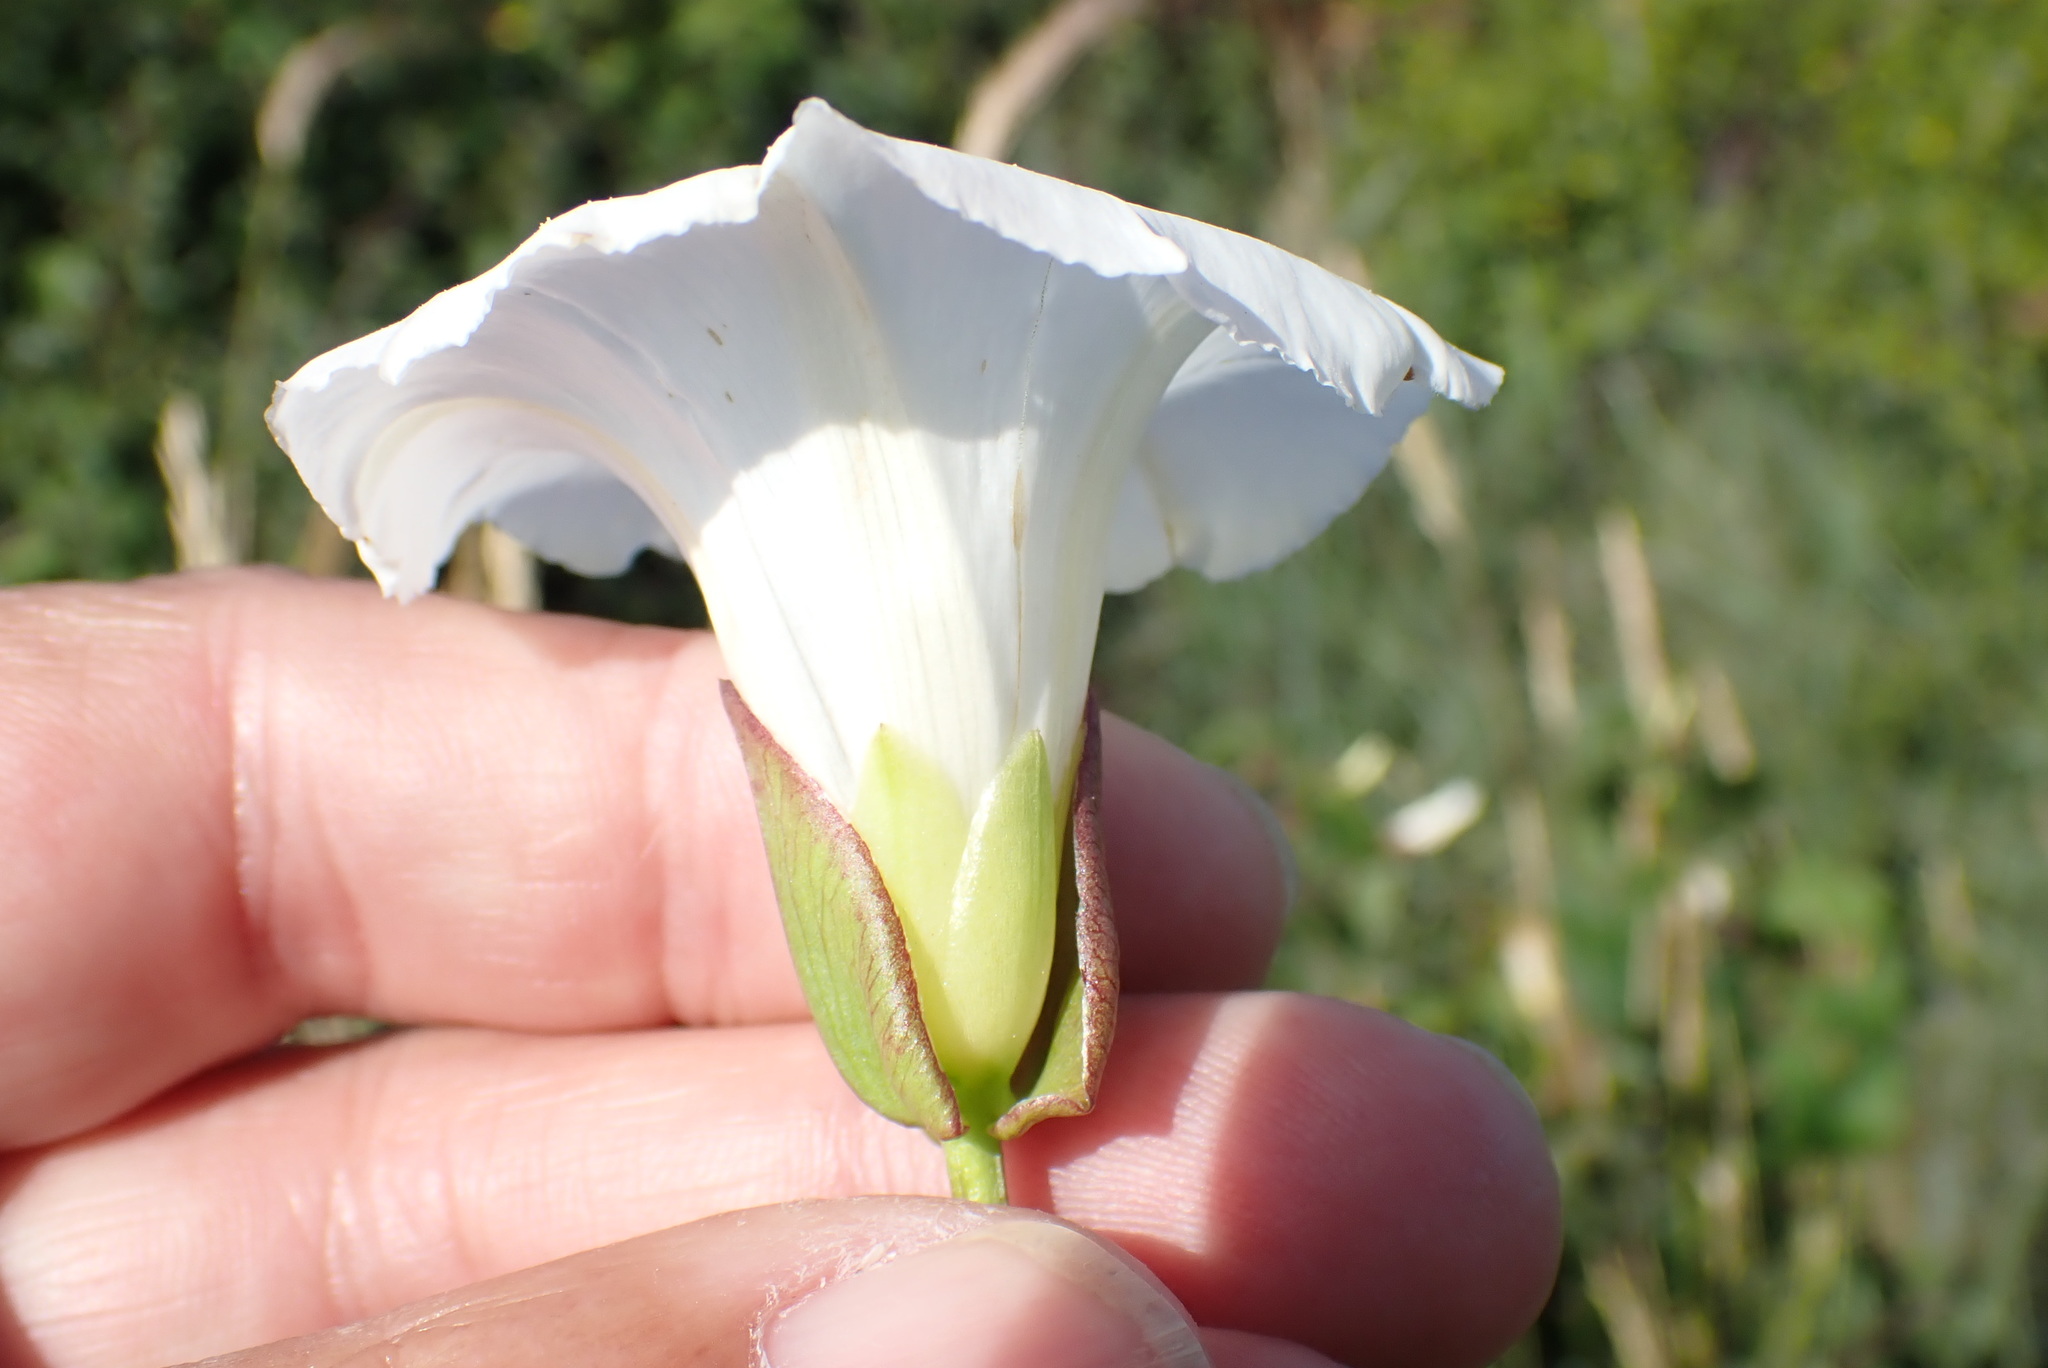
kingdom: Plantae
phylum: Tracheophyta
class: Magnoliopsida
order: Solanales
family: Convolvulaceae
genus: Calystegia
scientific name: Calystegia sepium
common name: Hedge bindweed
